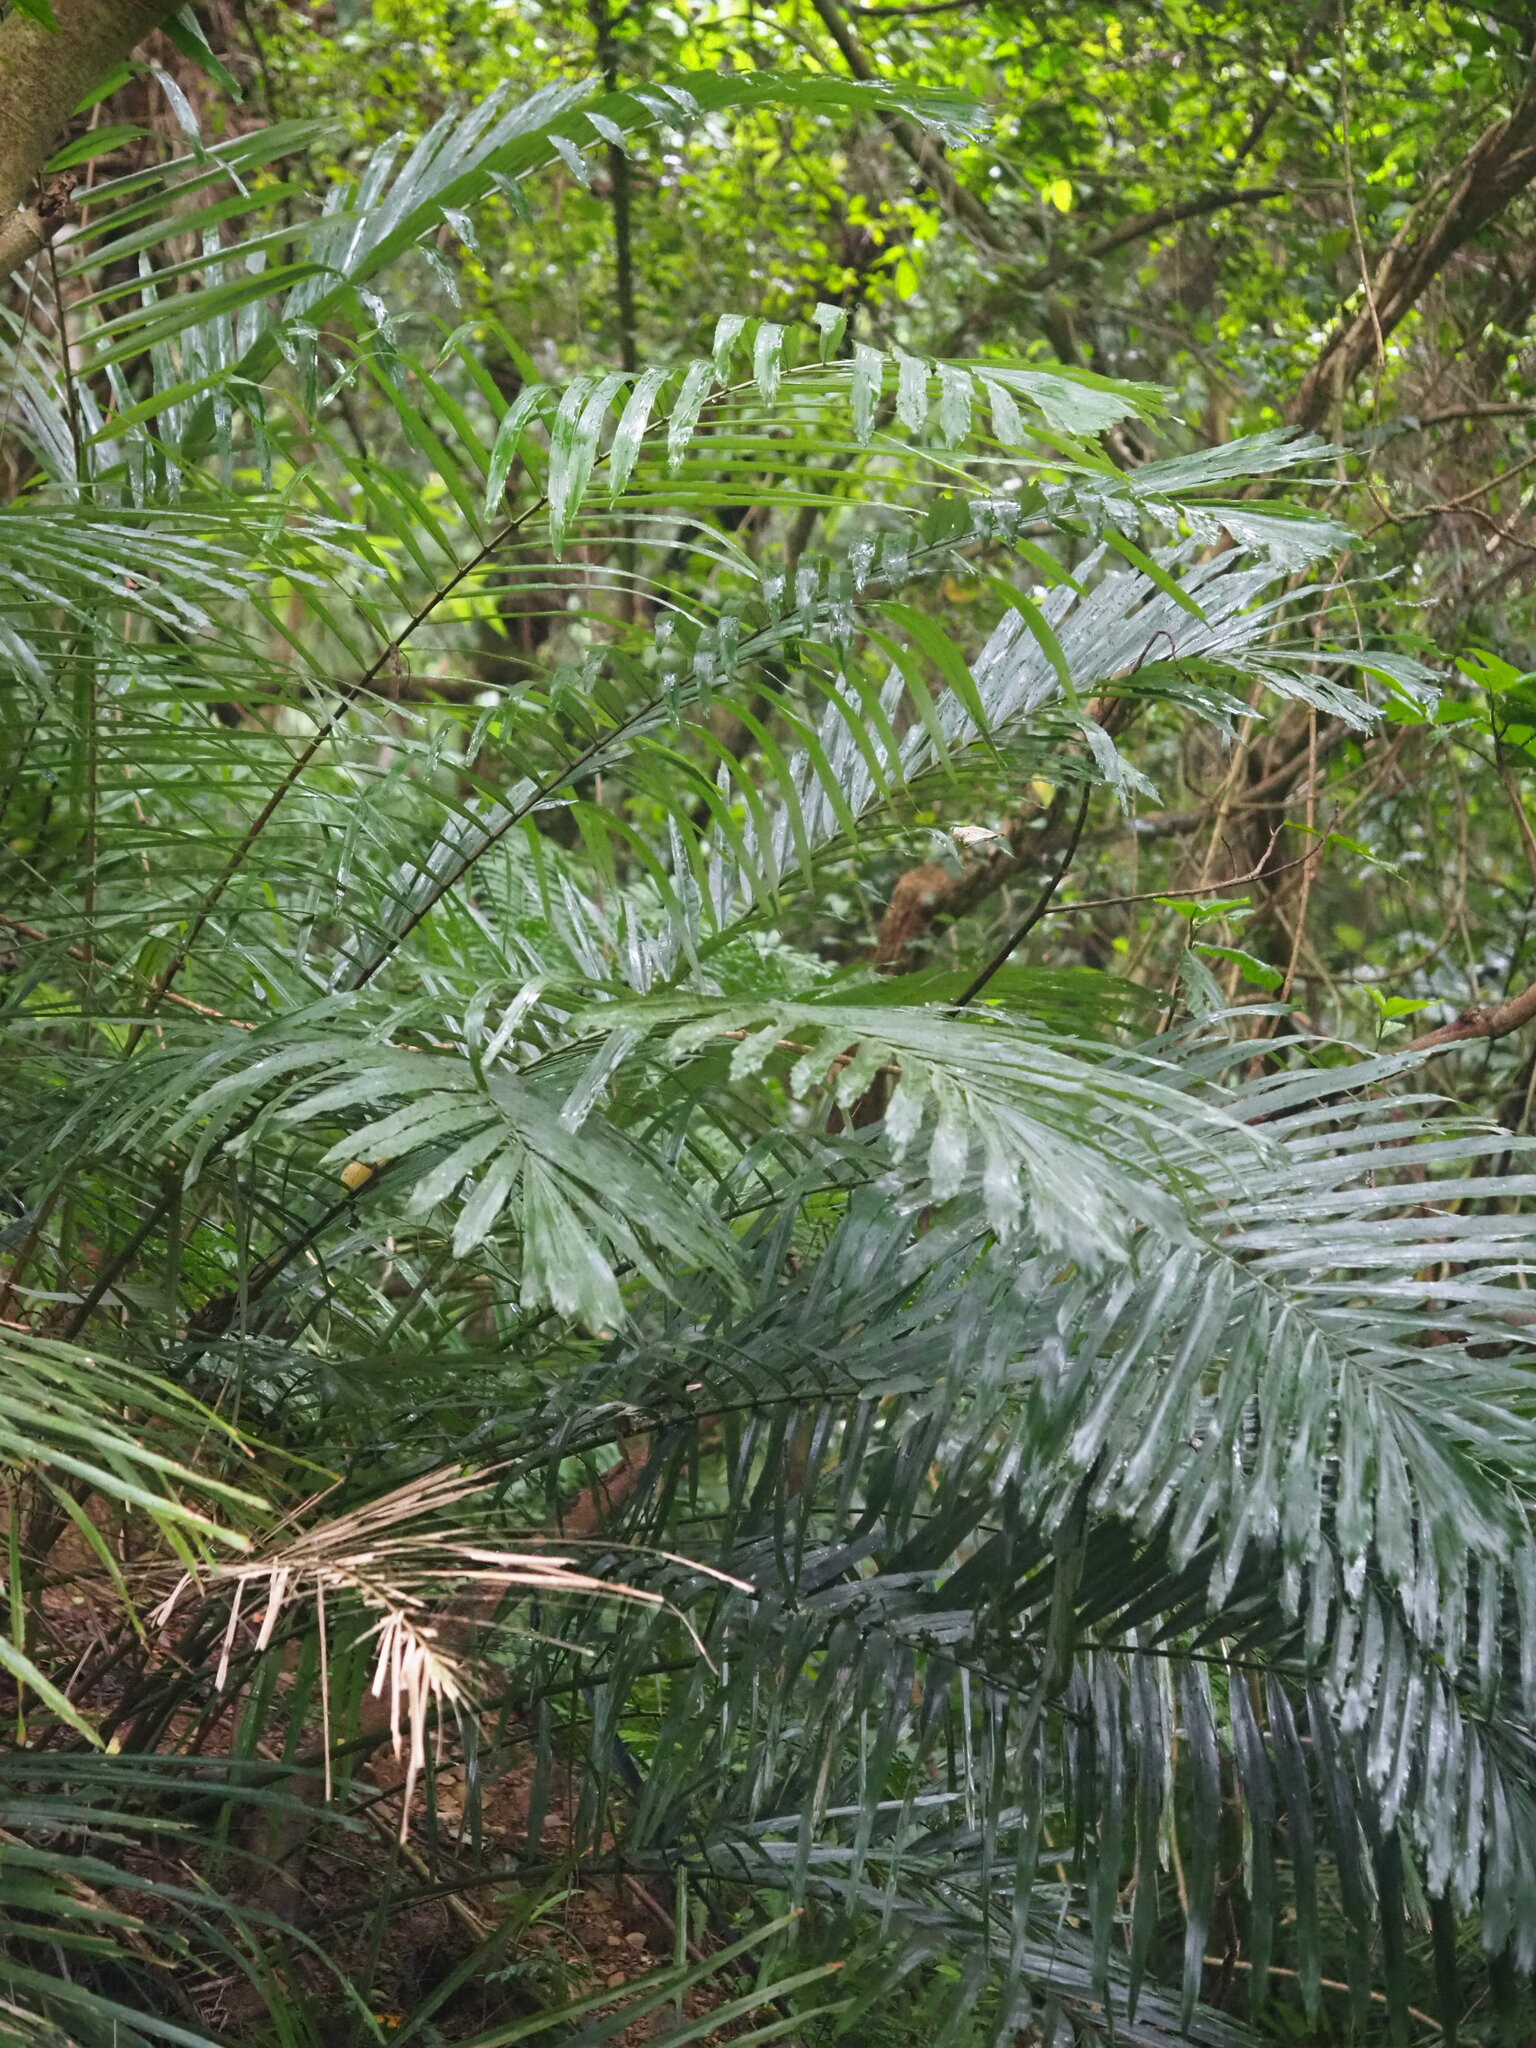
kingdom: Plantae
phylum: Tracheophyta
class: Liliopsida
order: Arecales
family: Arecaceae
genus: Arenga
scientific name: Arenga engleri
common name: Formosan sugar palm
